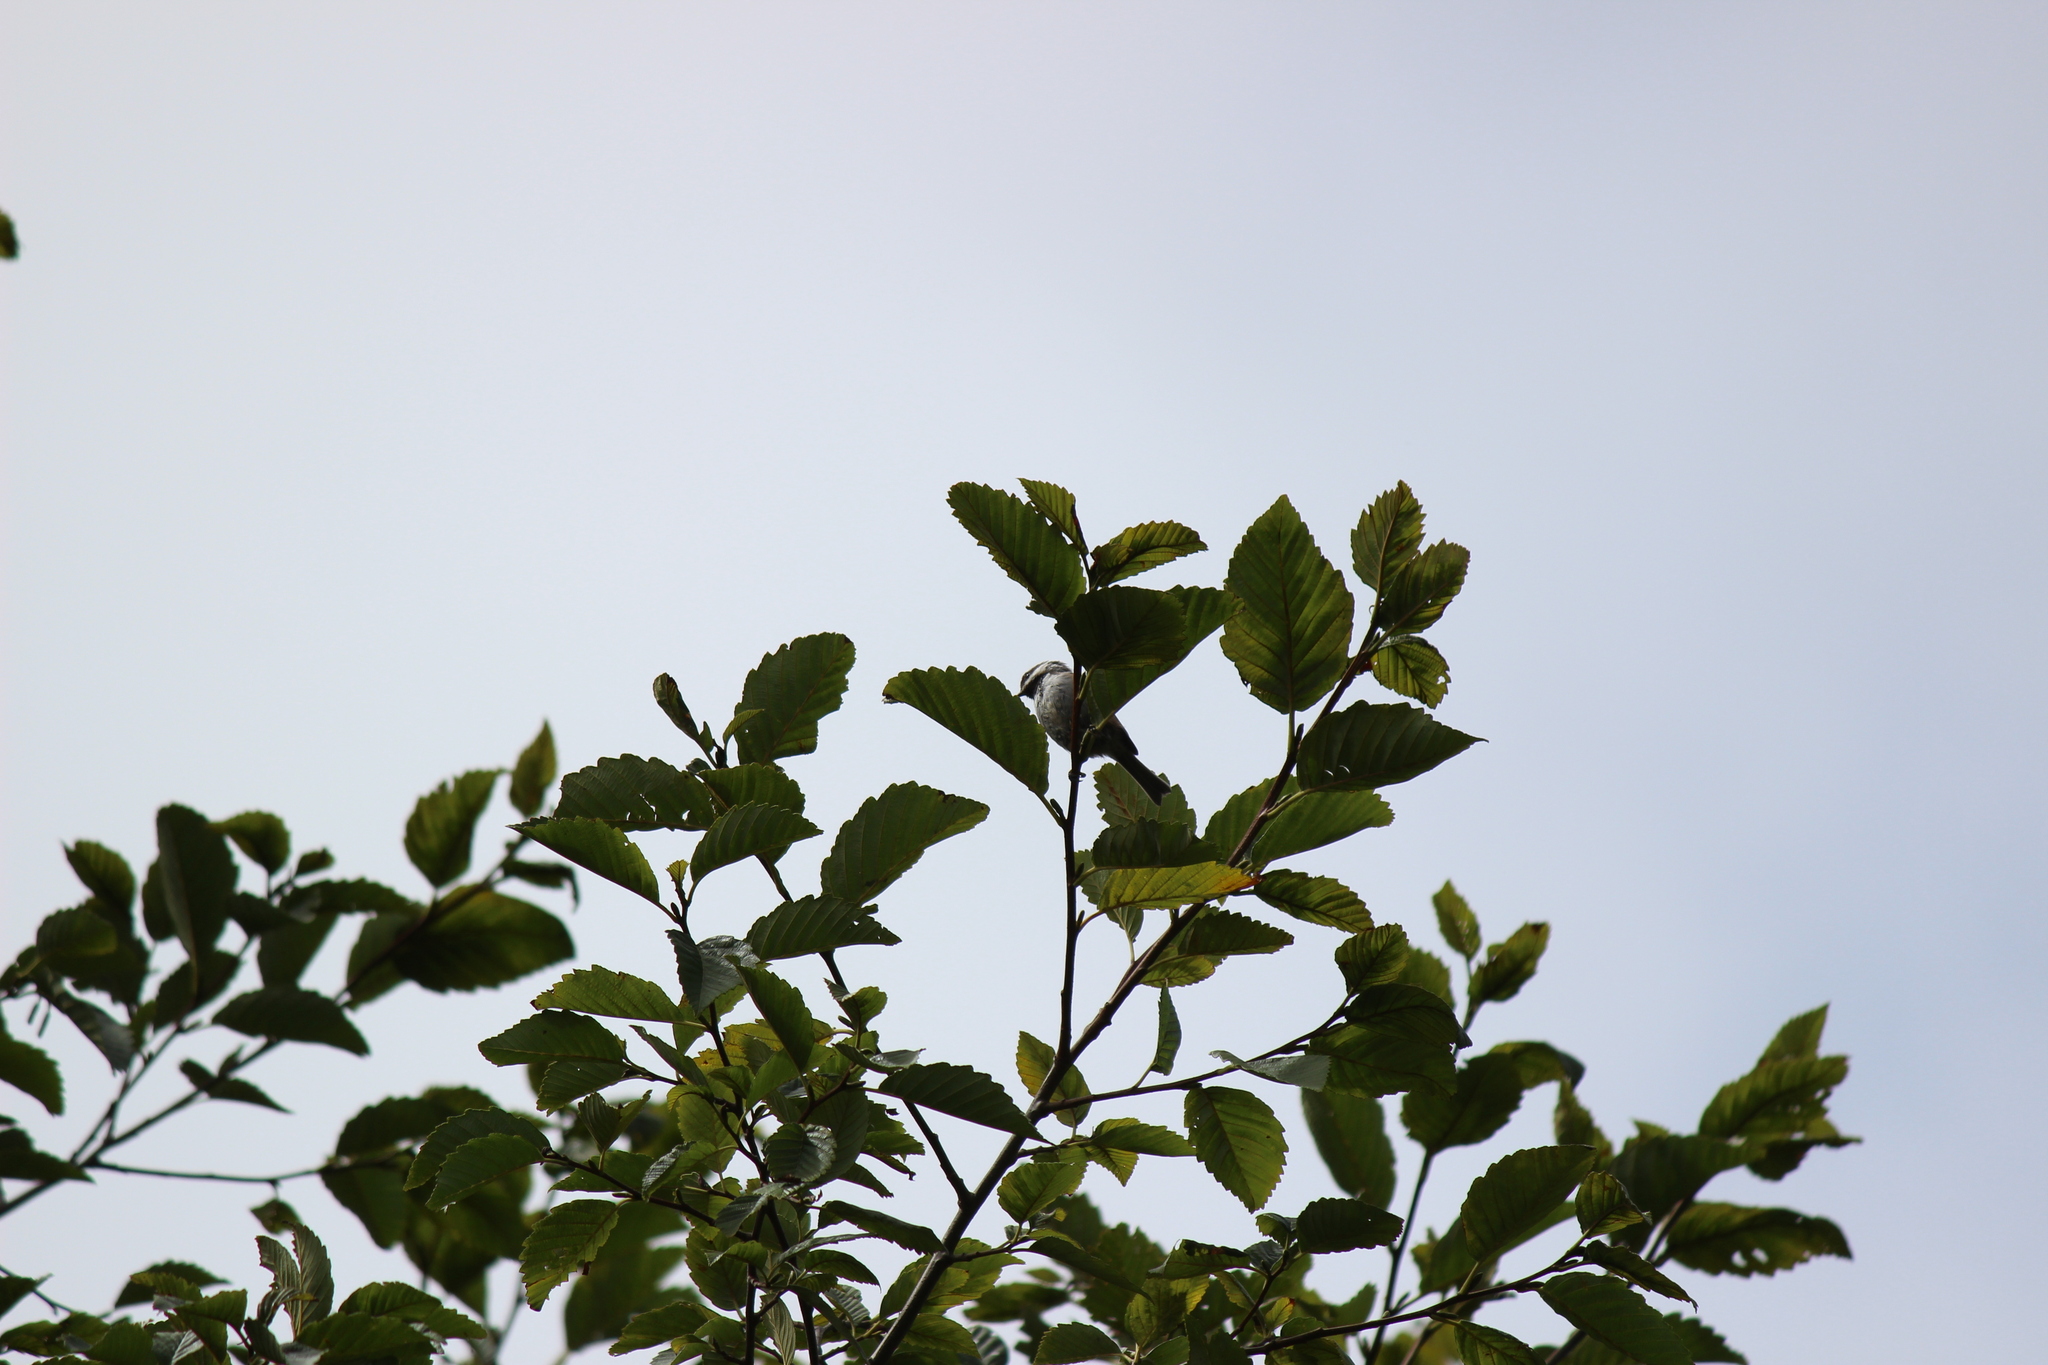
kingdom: Animalia
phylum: Chordata
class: Aves
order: Passeriformes
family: Paridae
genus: Poecile
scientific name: Poecile rufescens
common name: Chestnut-backed chickadee
